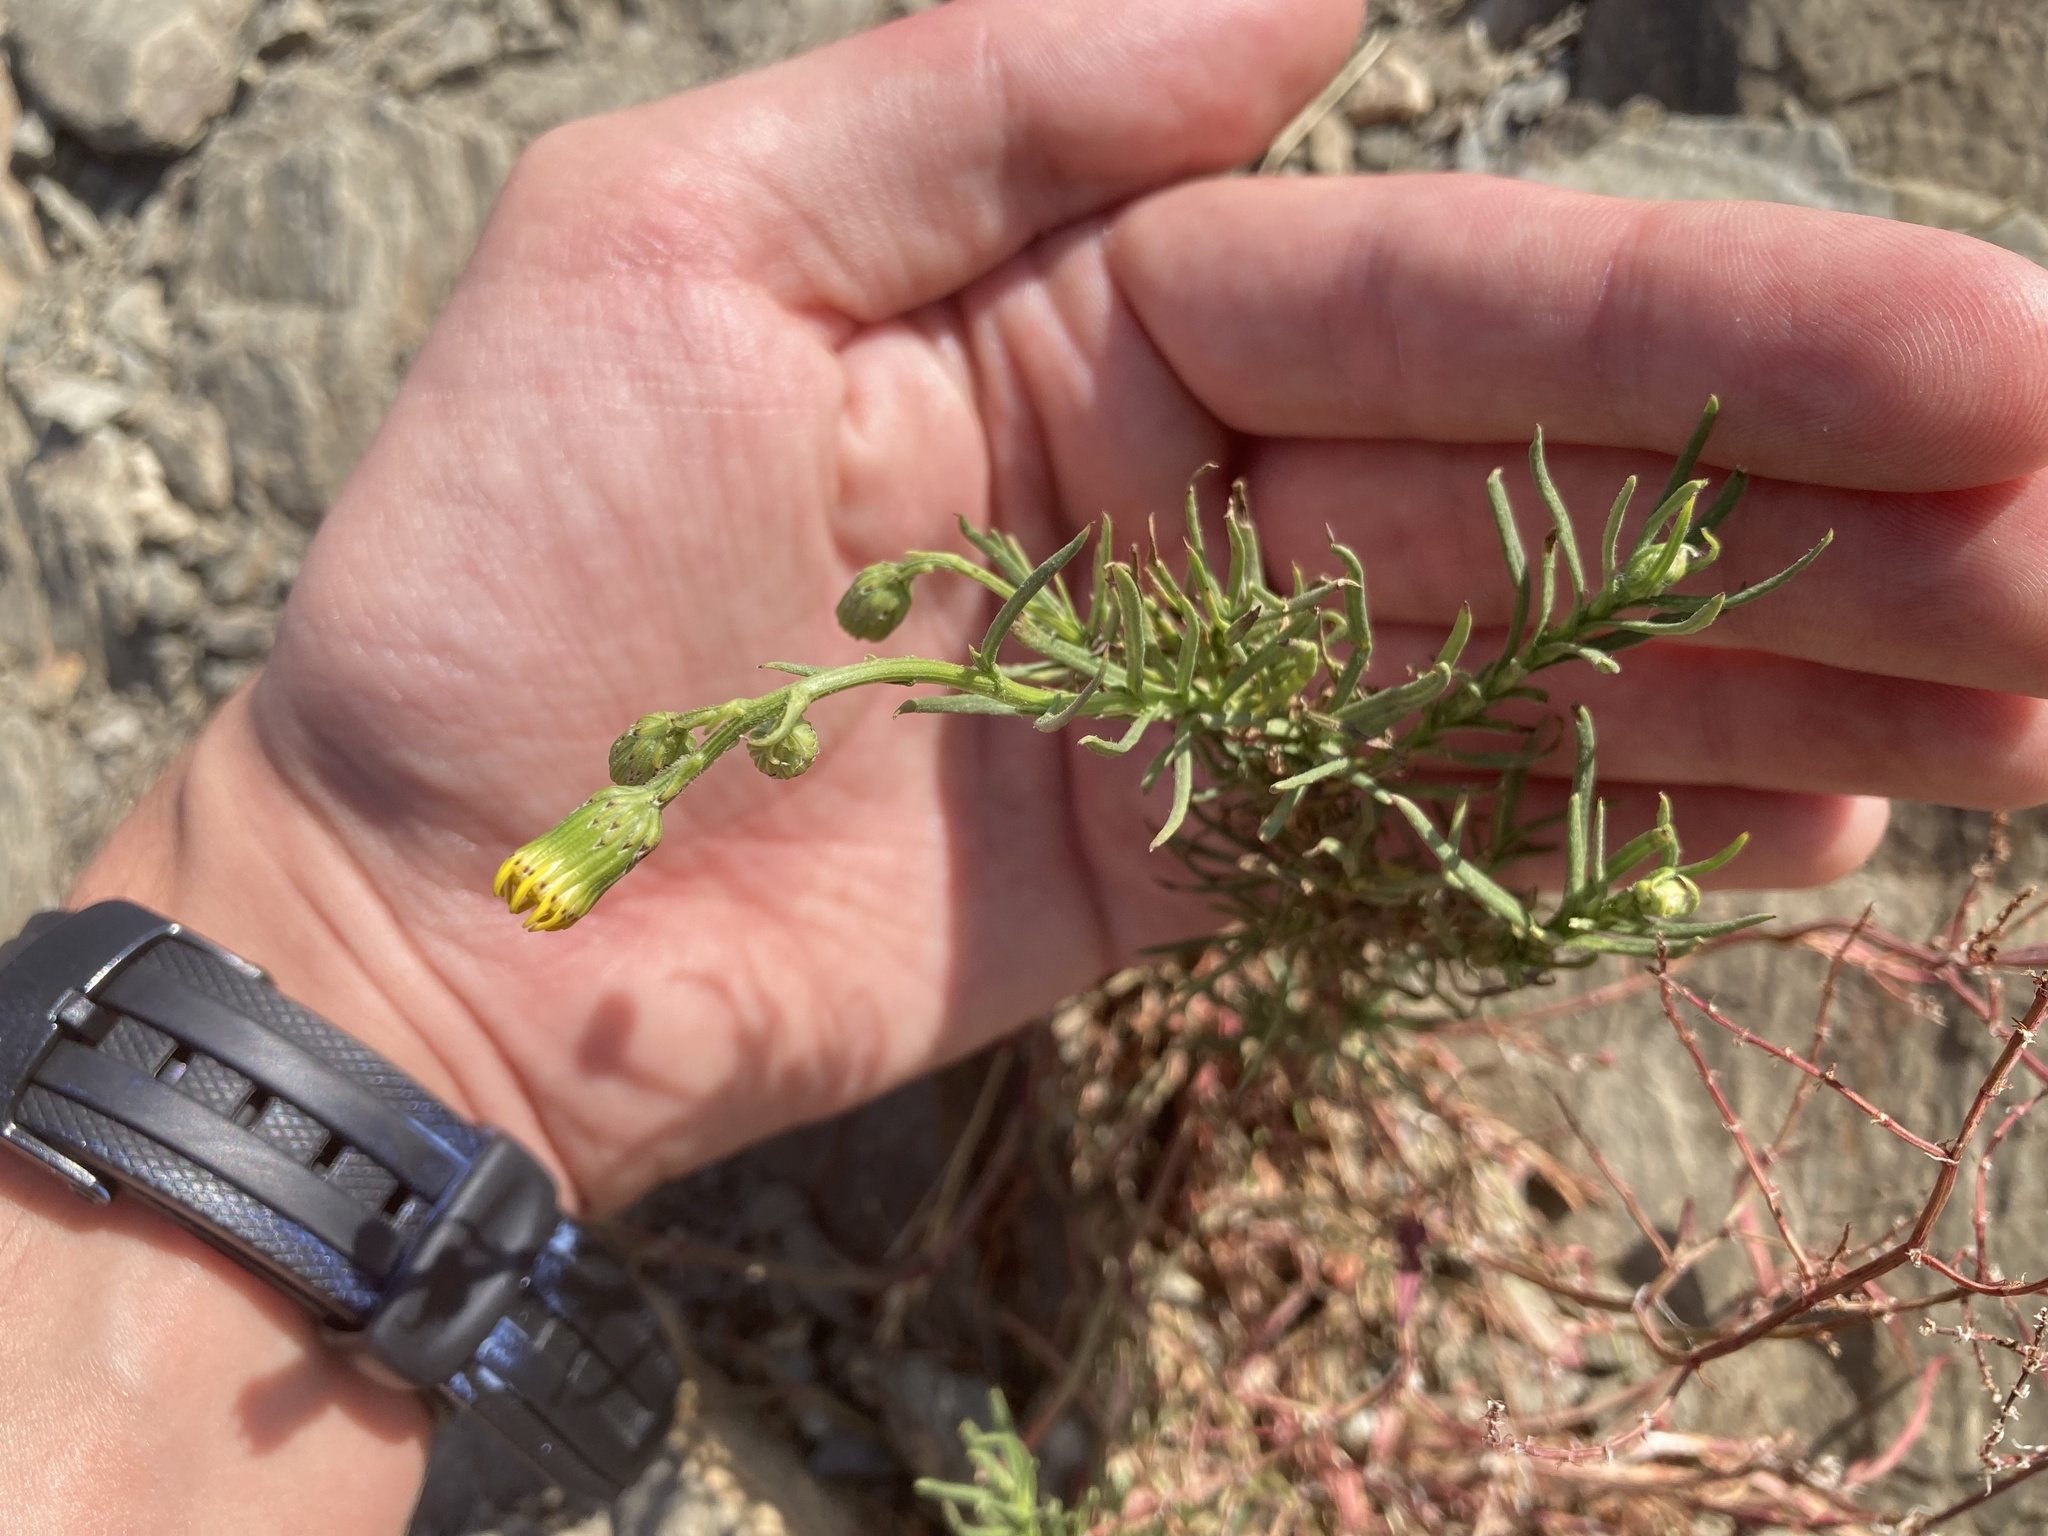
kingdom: Plantae
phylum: Tracheophyta
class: Magnoliopsida
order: Asterales
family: Asteraceae
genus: Senecio
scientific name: Senecio inaequidens
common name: Narrow-leaved ragwort
